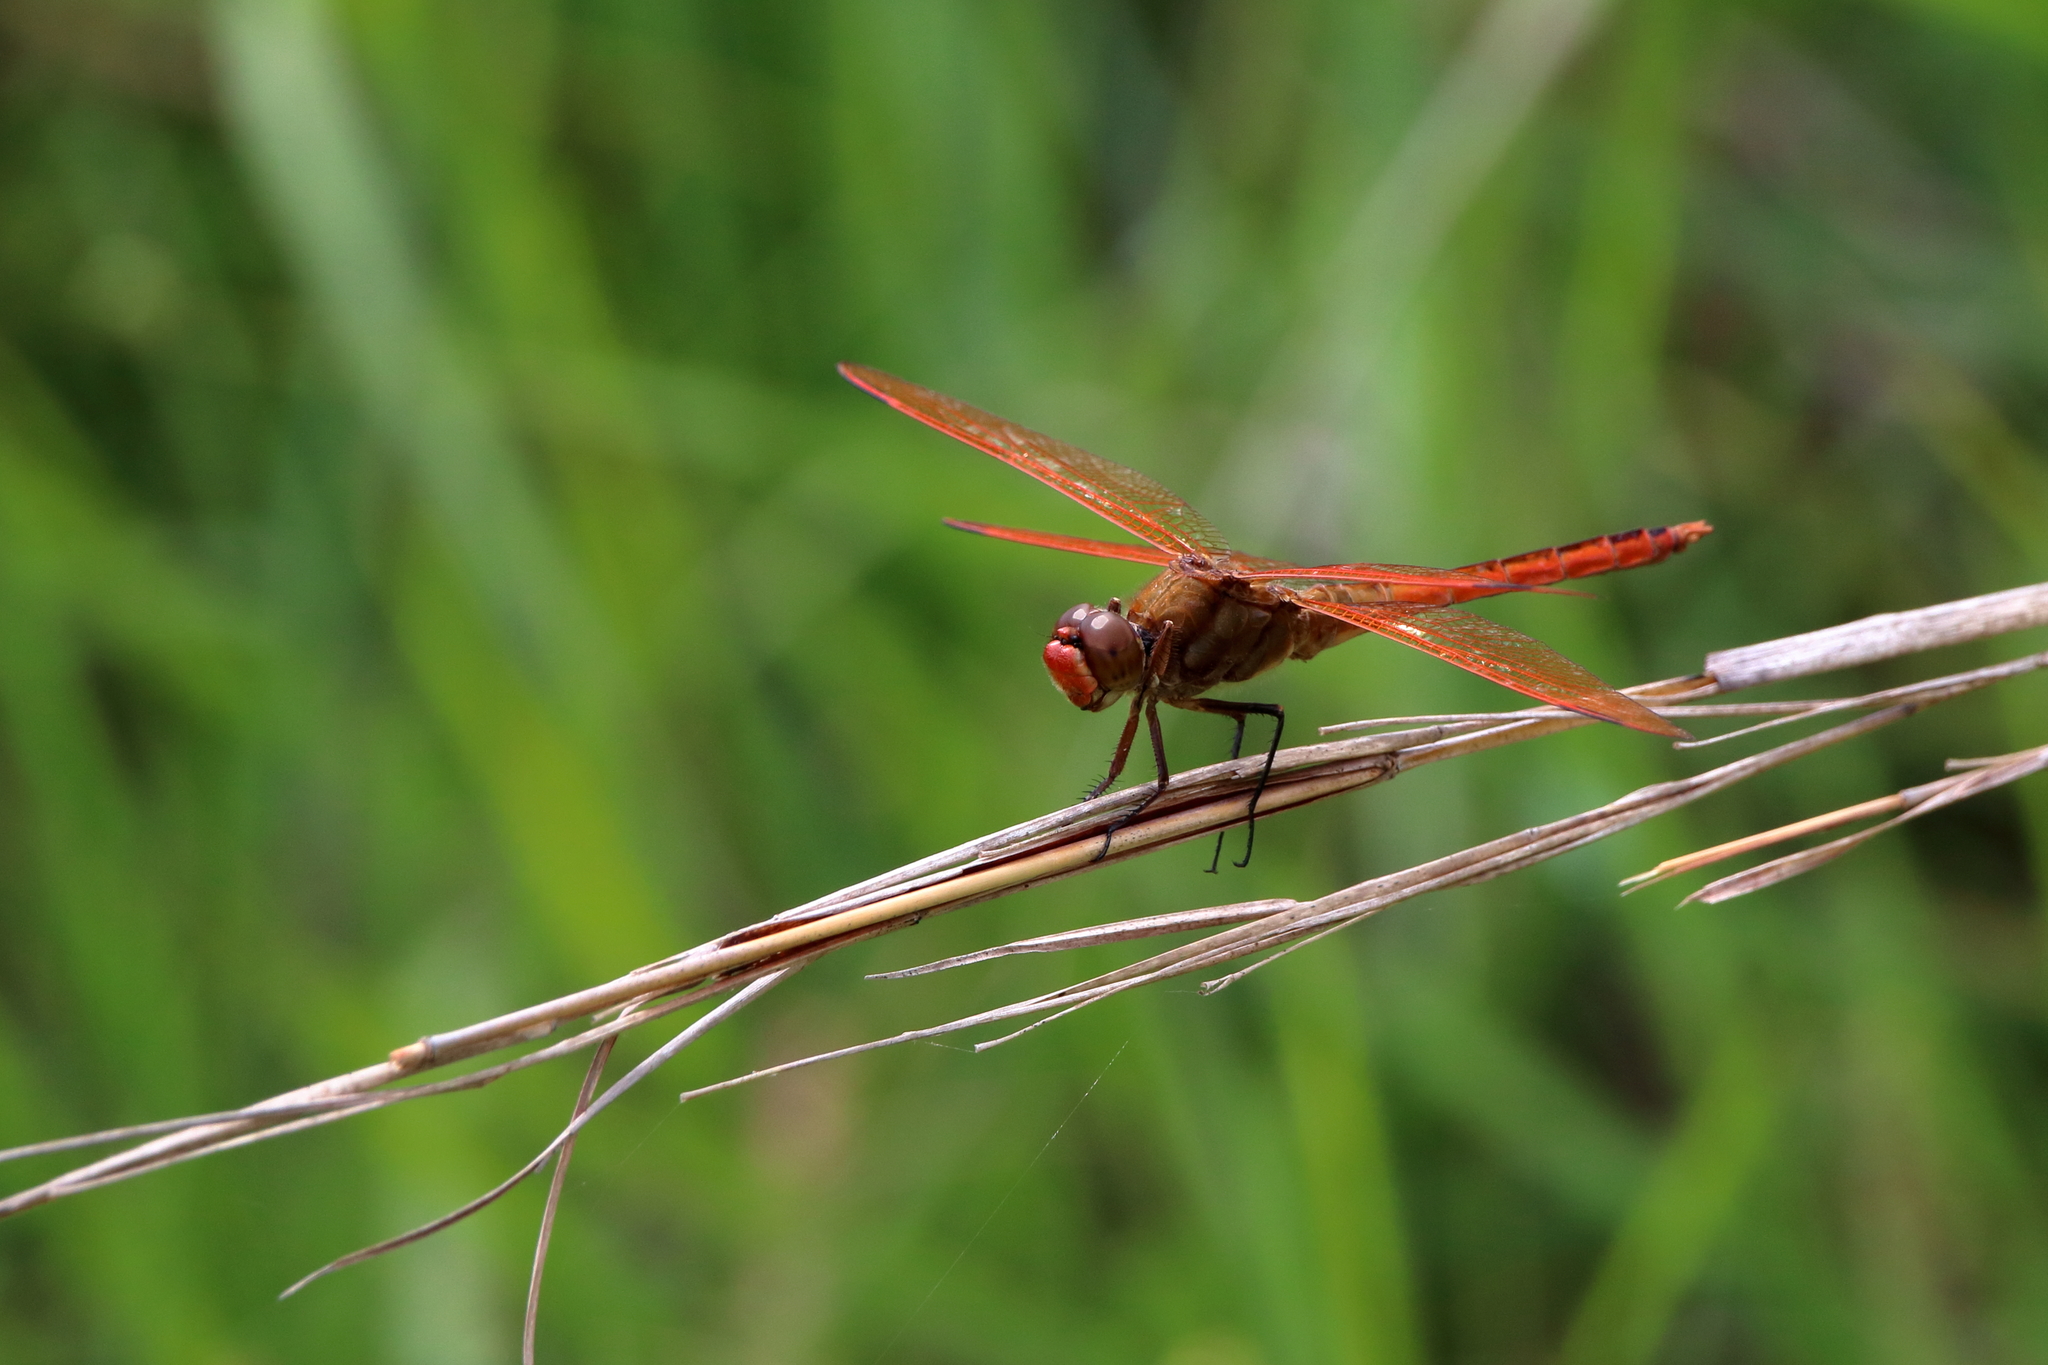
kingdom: Animalia
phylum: Arthropoda
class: Insecta
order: Odonata
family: Libellulidae
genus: Libellula
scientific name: Libellula auripennis
